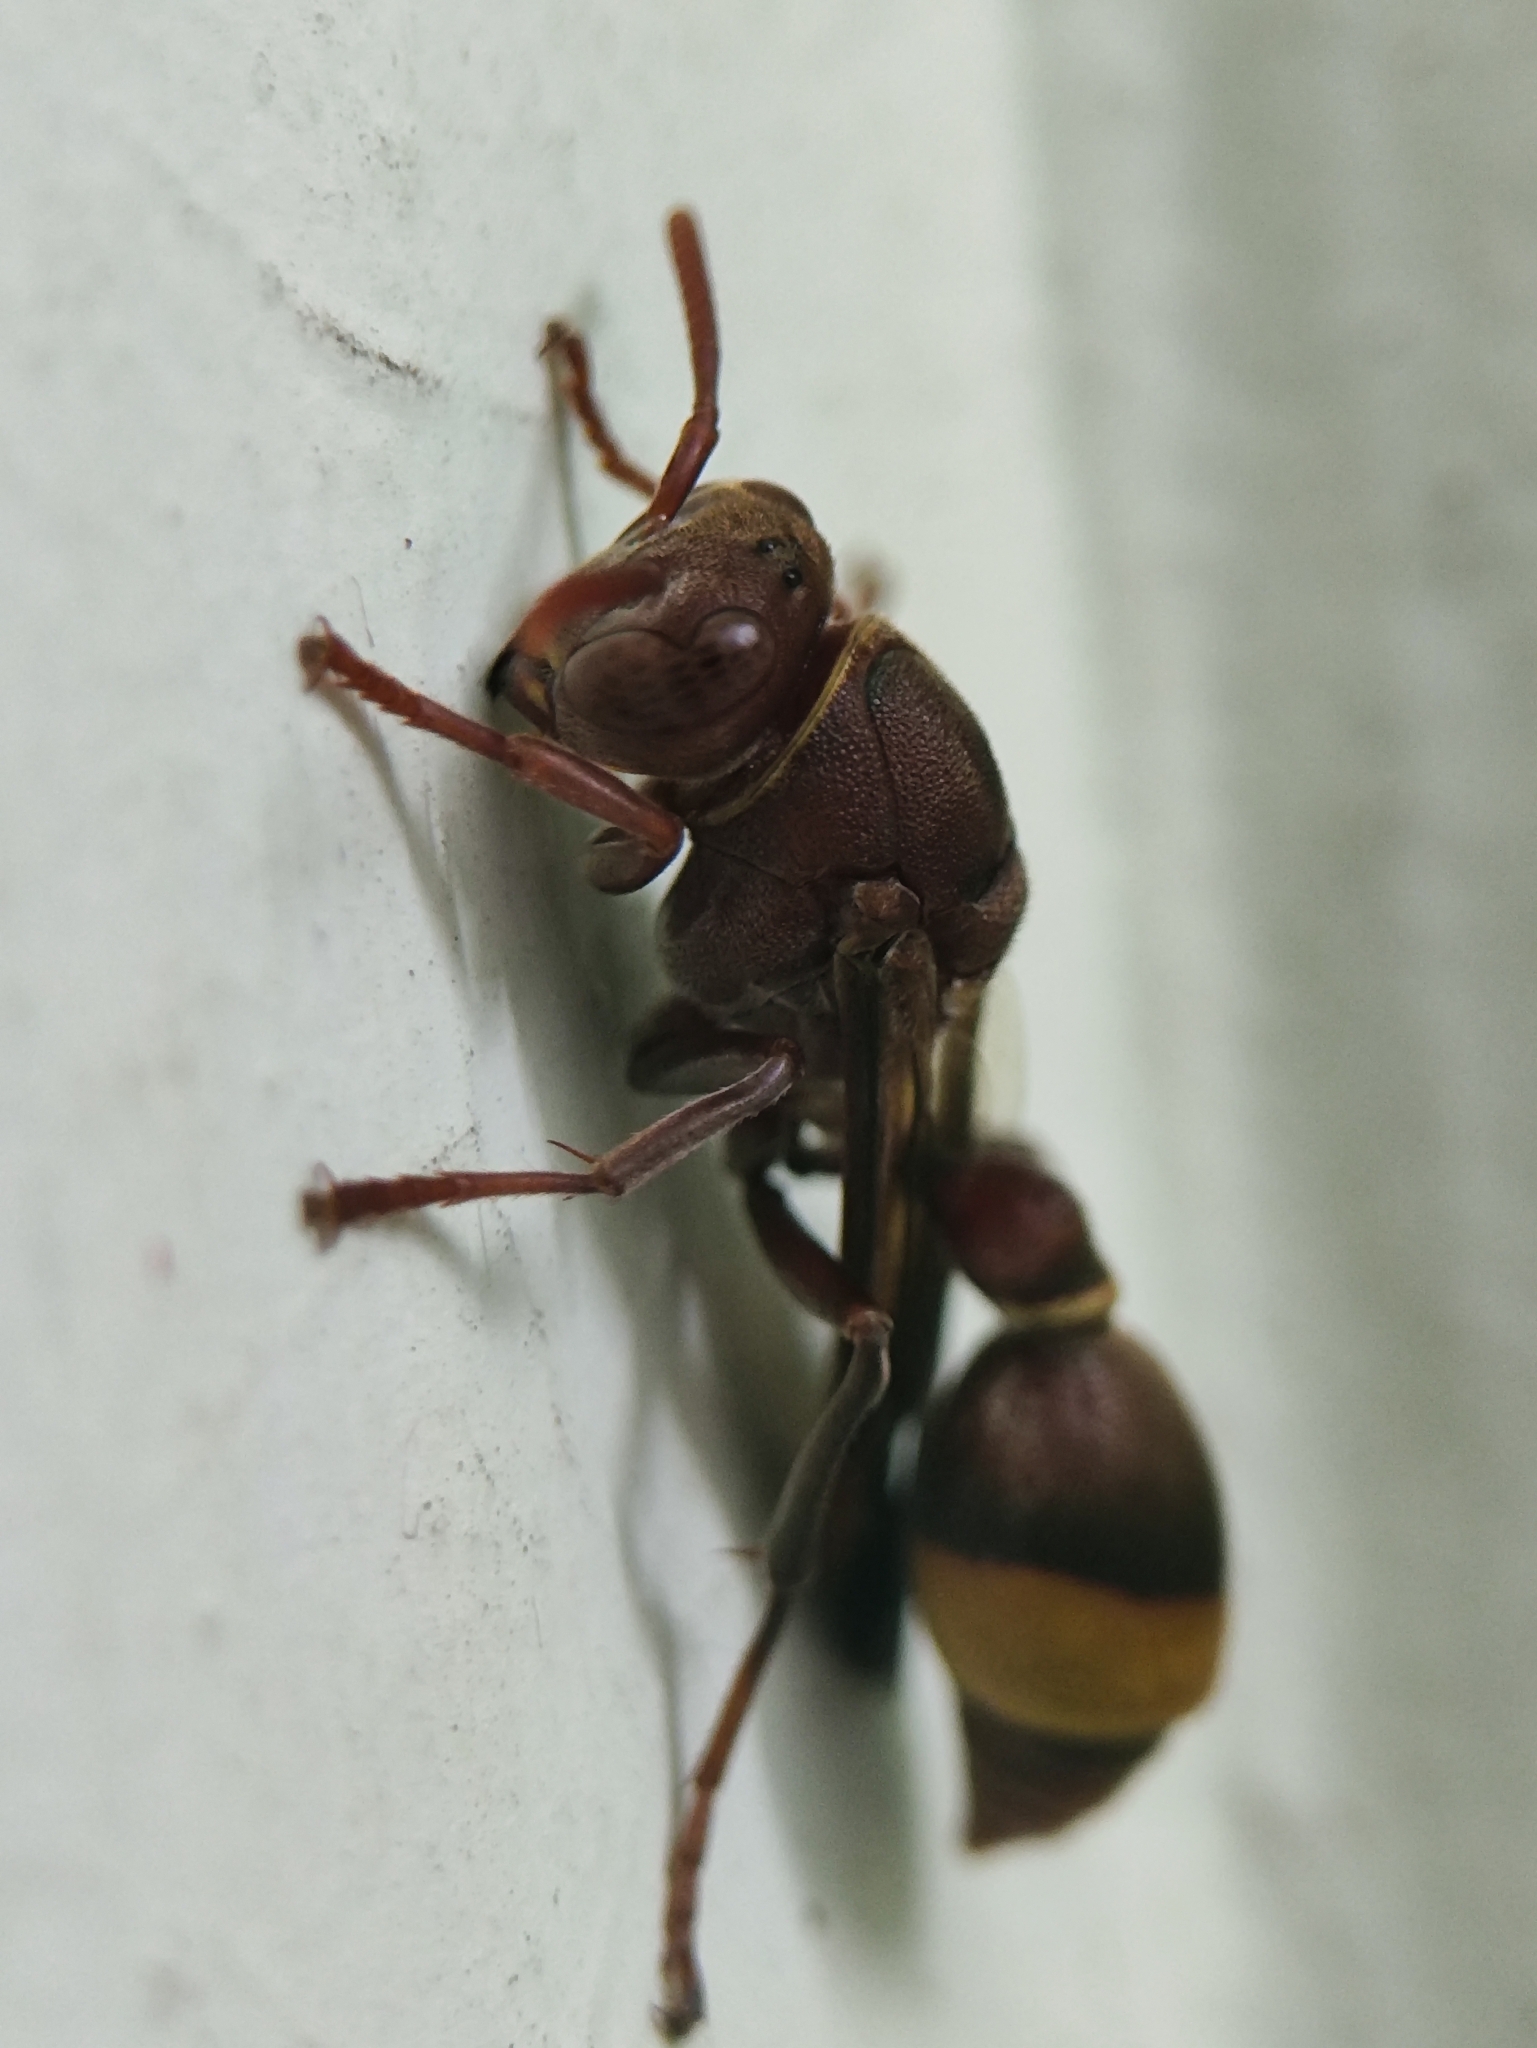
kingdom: Animalia
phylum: Arthropoda
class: Insecta
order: Hymenoptera
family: Vespidae
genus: Ropalidia
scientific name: Ropalidia brevita
